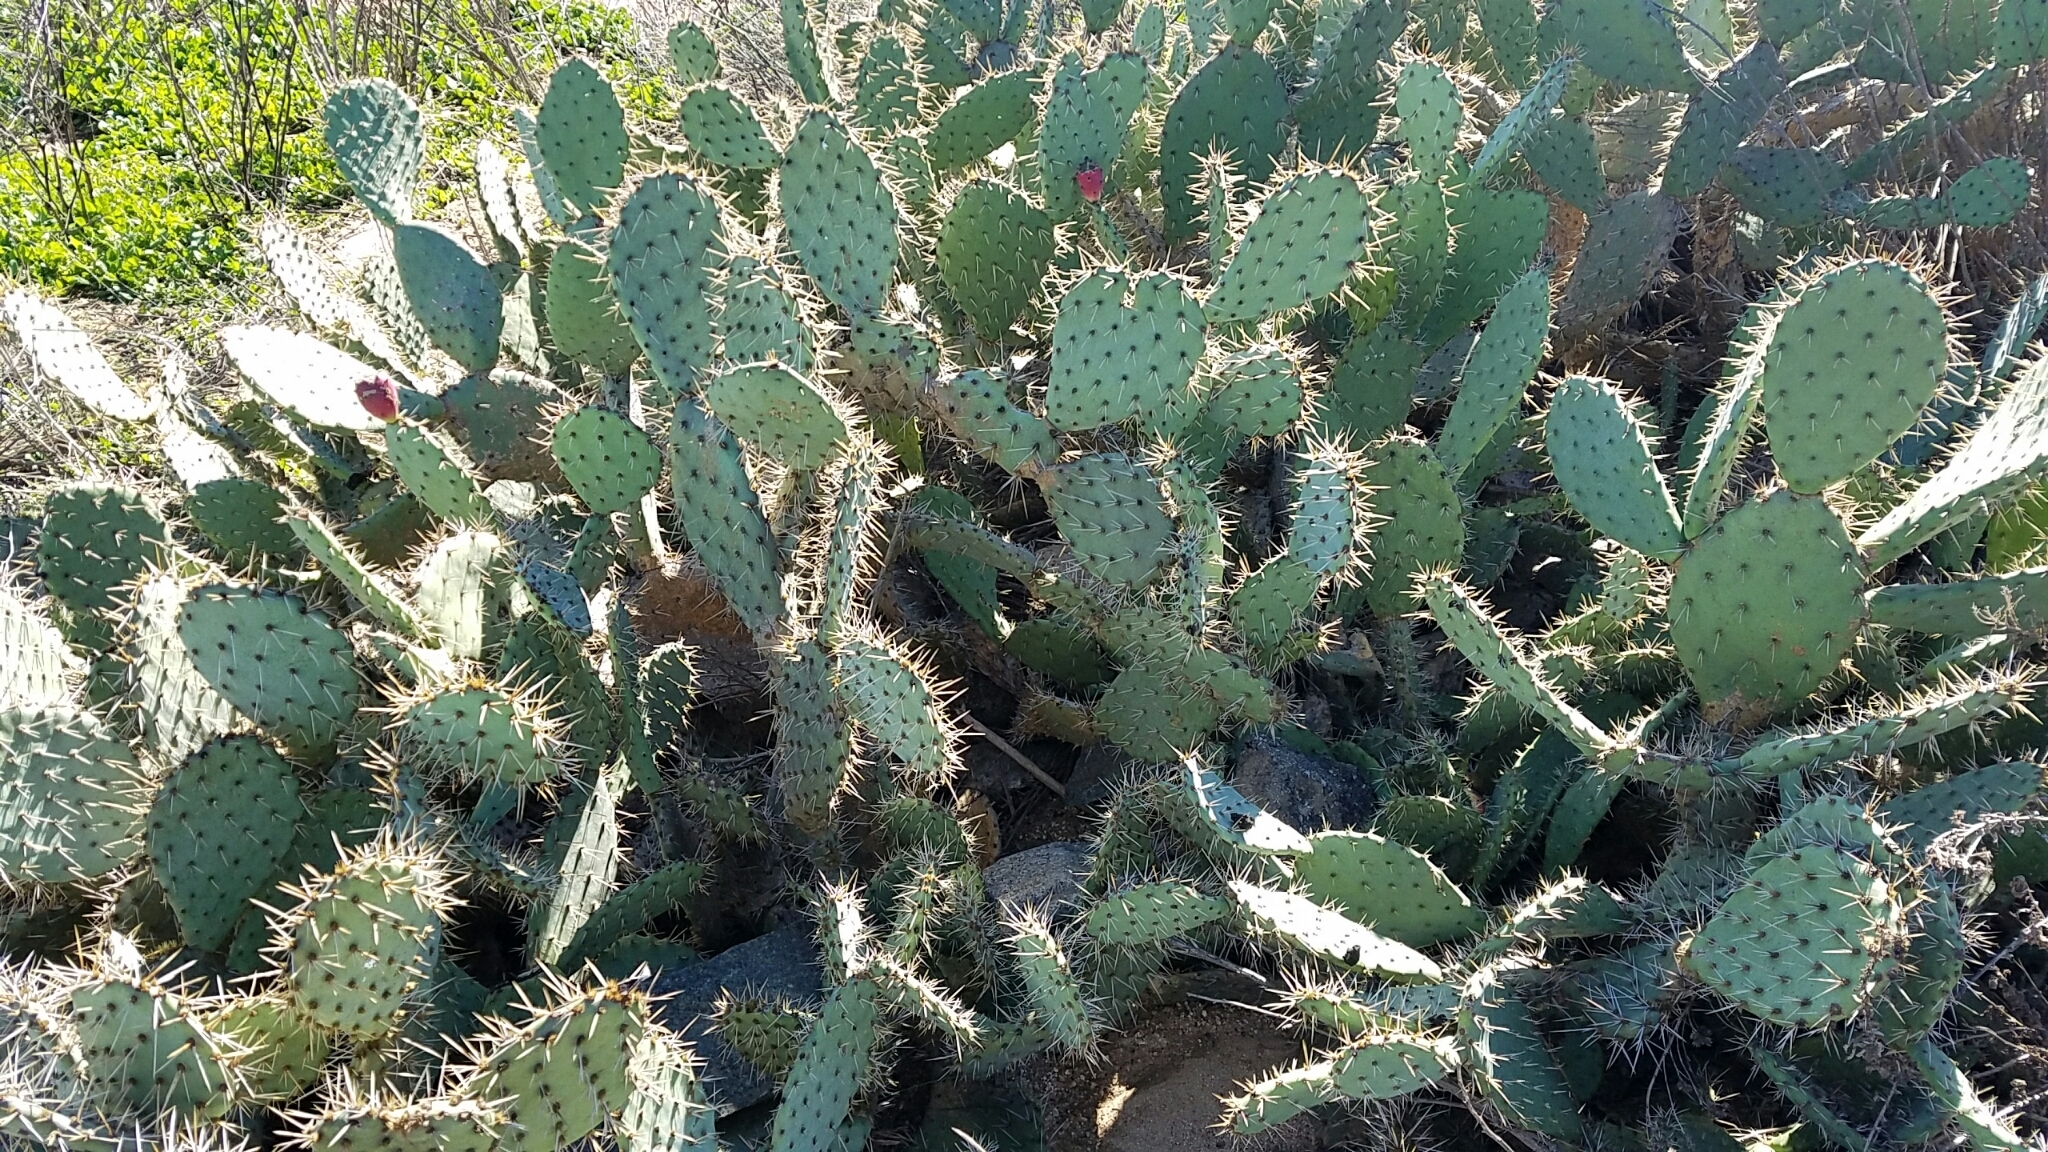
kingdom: Plantae
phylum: Tracheophyta
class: Magnoliopsida
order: Caryophyllales
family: Cactaceae
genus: Opuntia
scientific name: Opuntia littoralis
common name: Coastal prickly-pear
